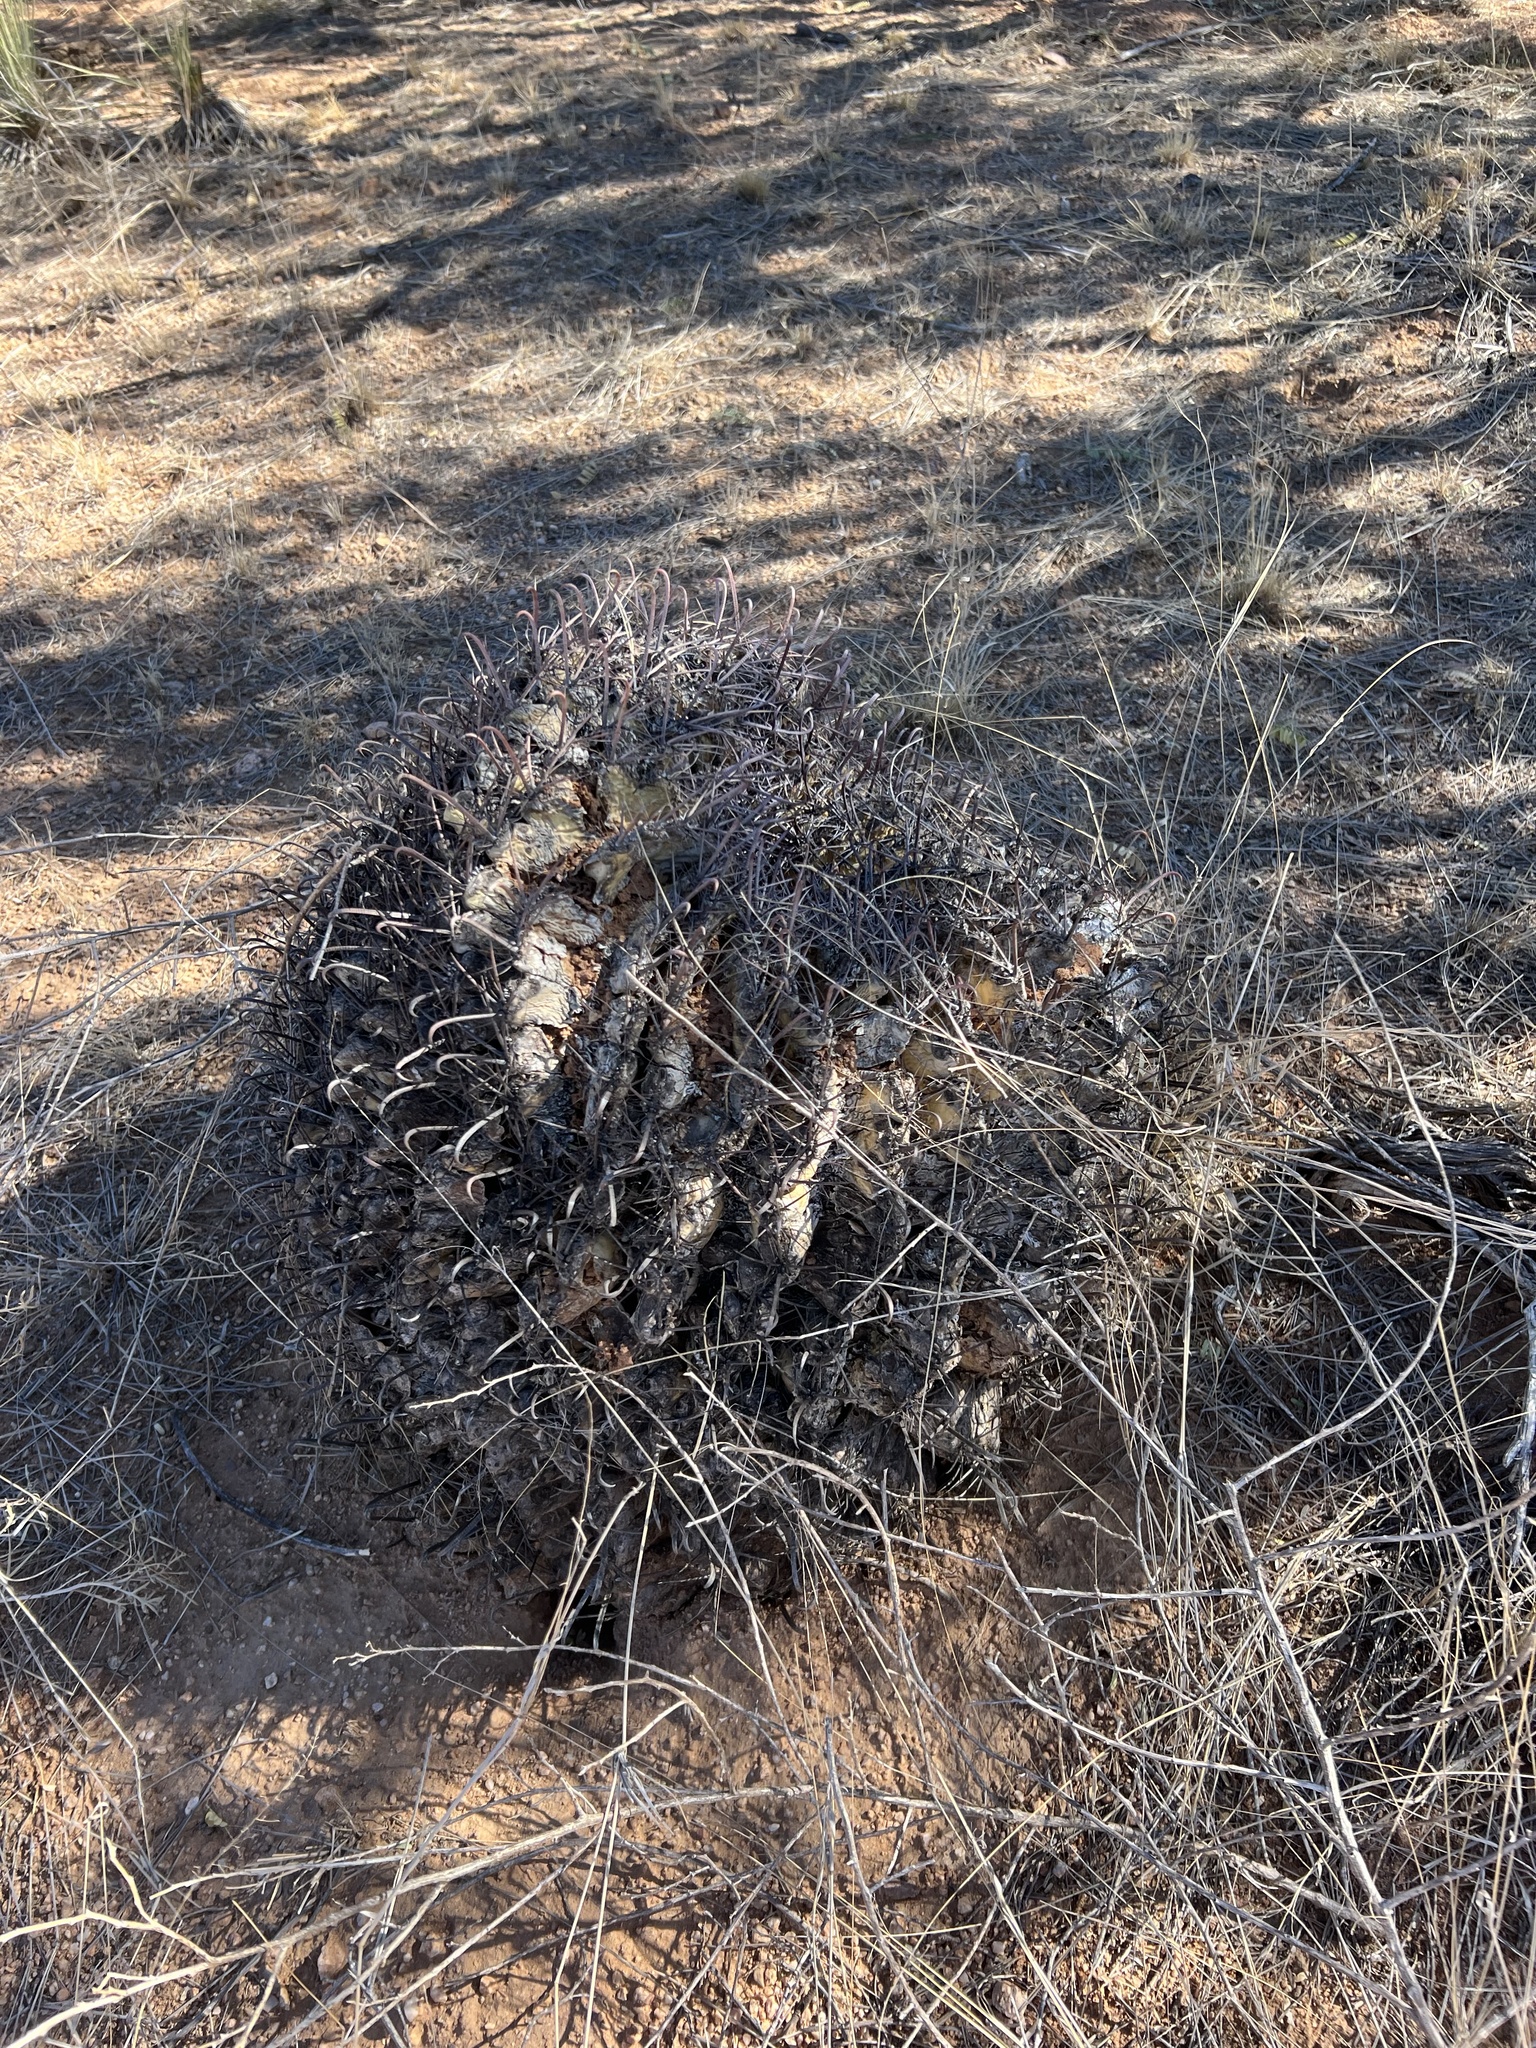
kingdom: Plantae
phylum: Tracheophyta
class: Magnoliopsida
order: Caryophyllales
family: Cactaceae
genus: Ferocactus
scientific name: Ferocactus wislizeni
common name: Candy barrel cactus
